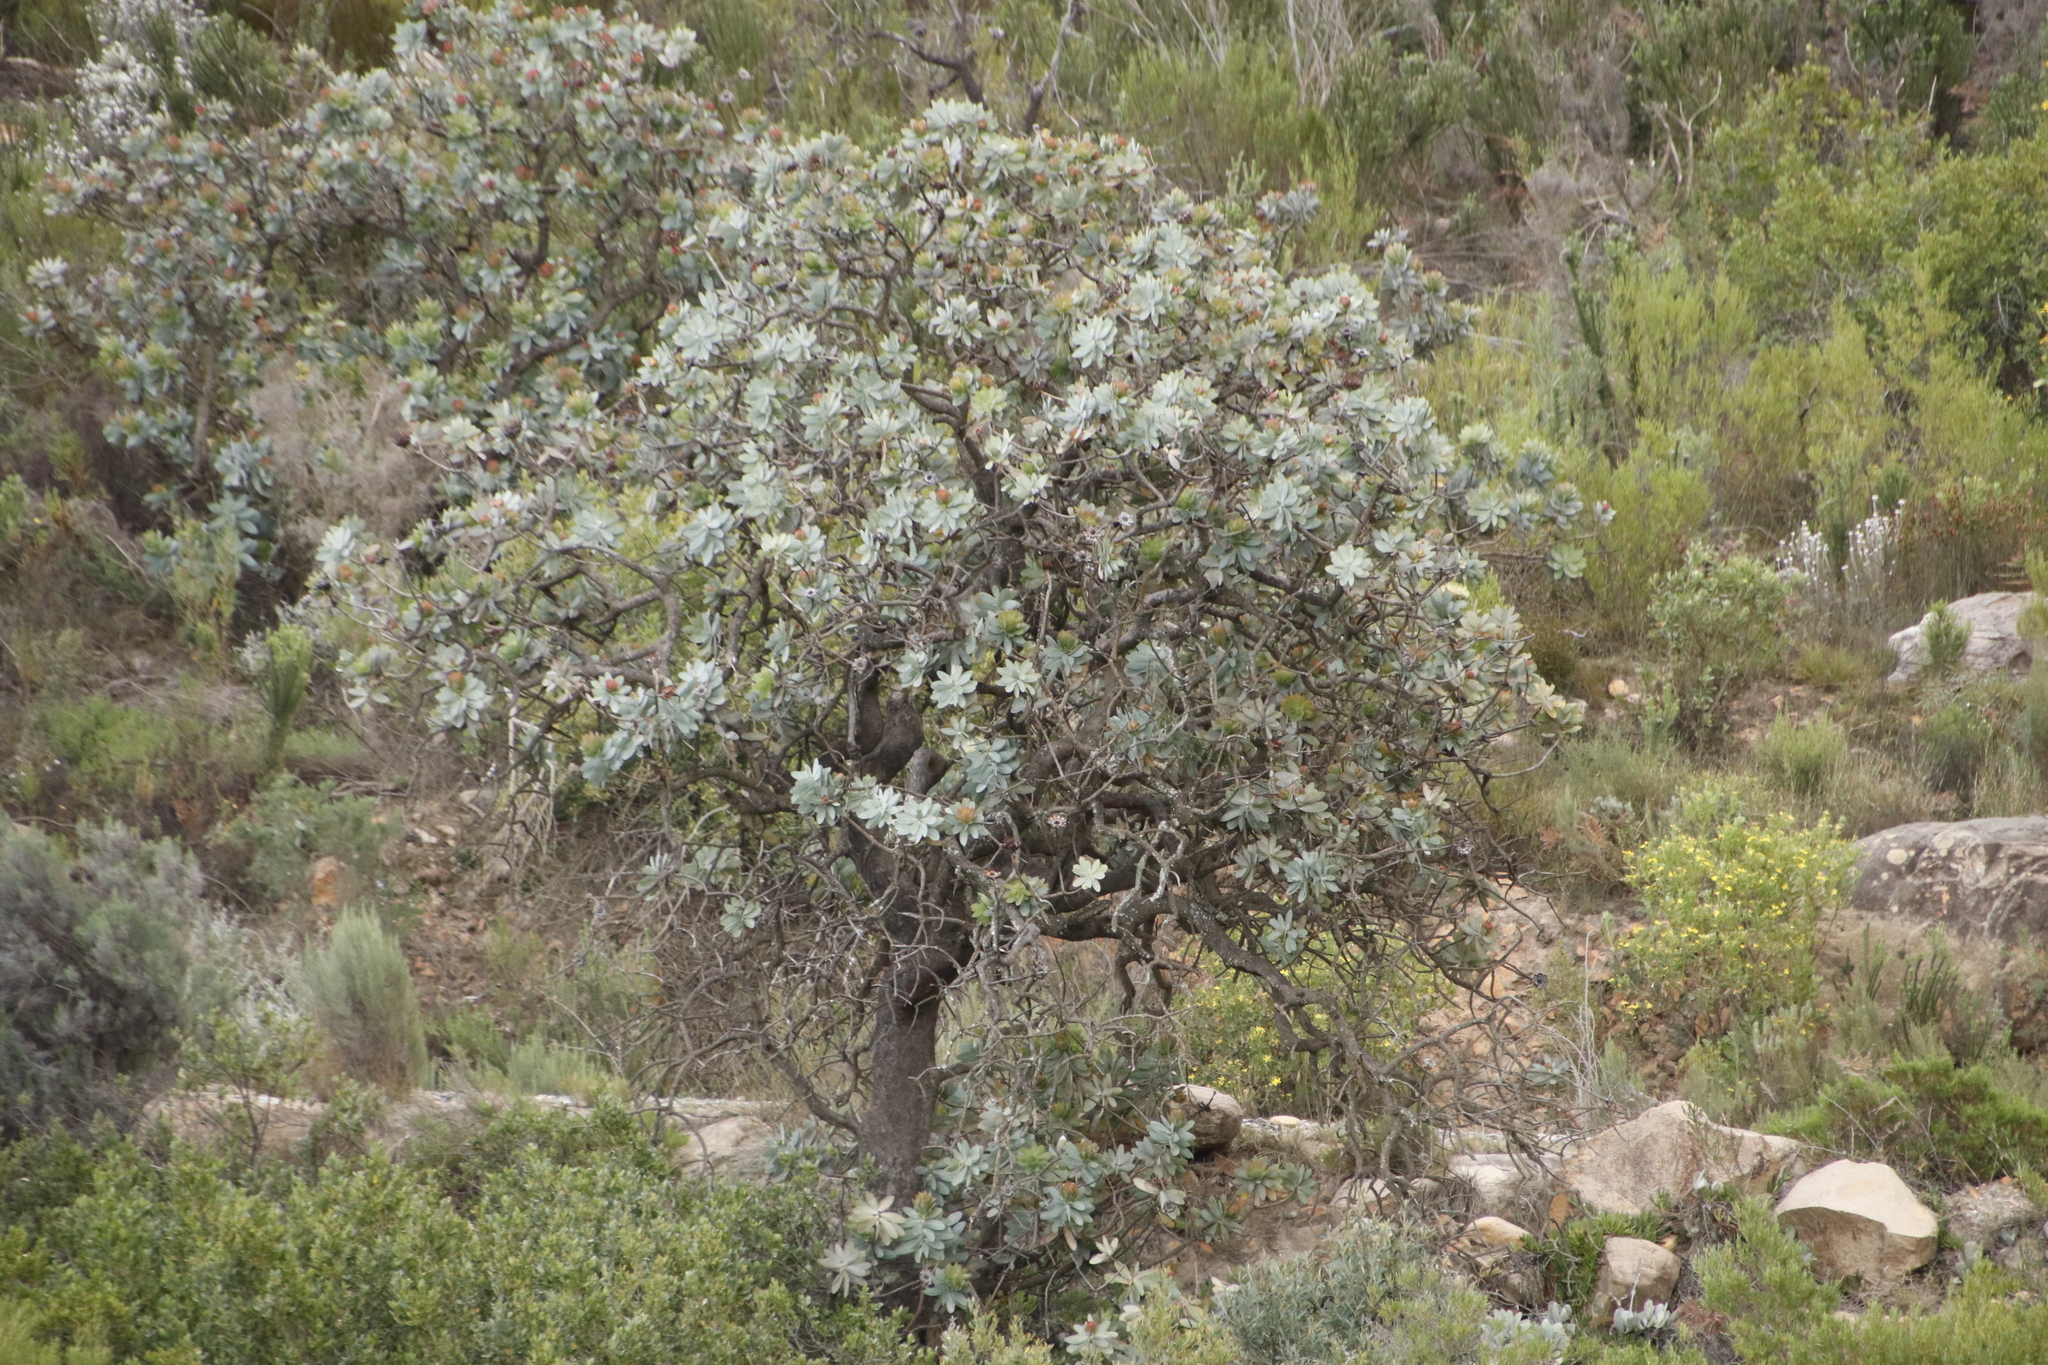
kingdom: Plantae
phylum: Tracheophyta
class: Magnoliopsida
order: Proteales
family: Proteaceae
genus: Protea
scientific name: Protea nitida
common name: Tree protea
